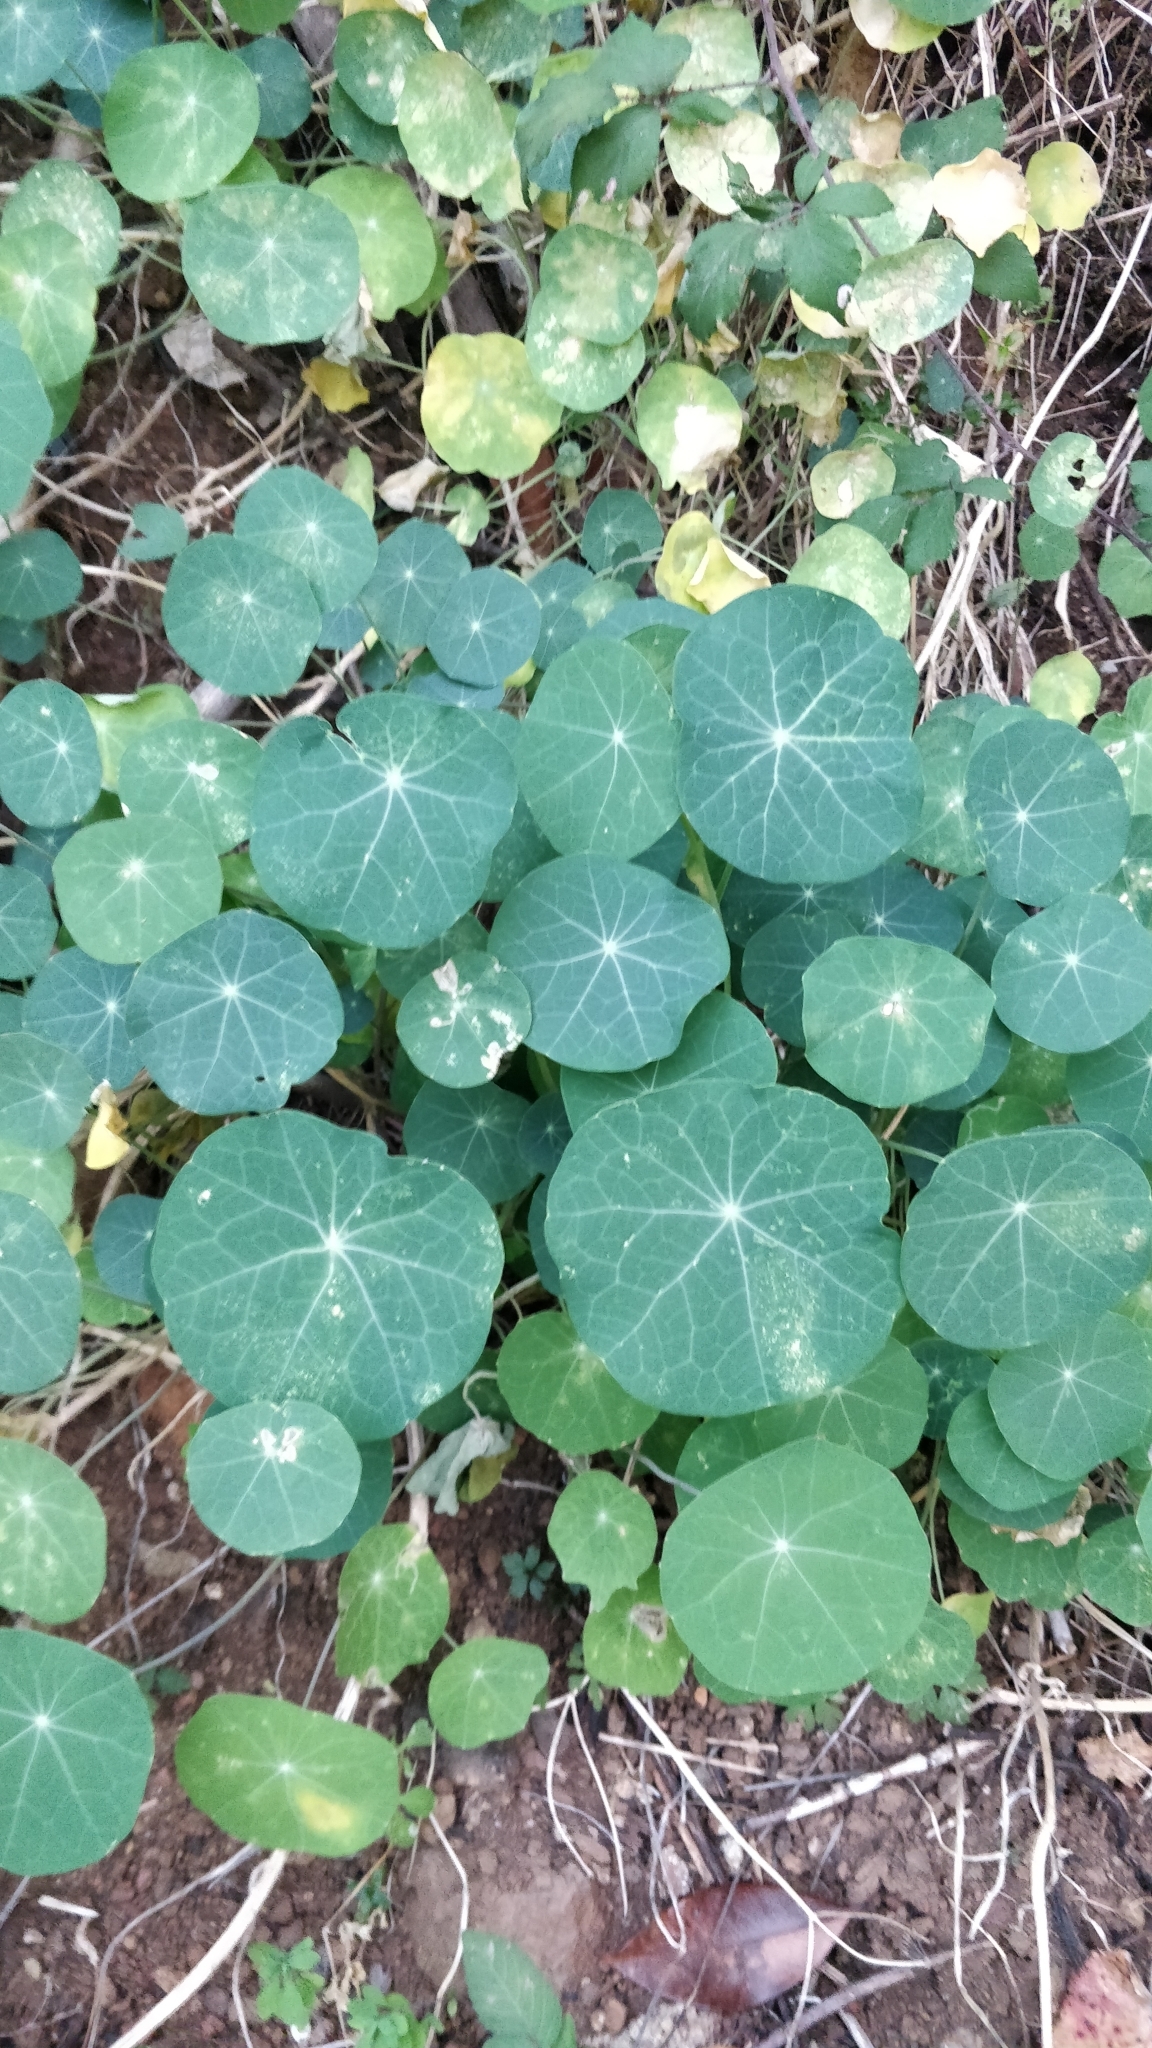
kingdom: Plantae
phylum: Tracheophyta
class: Magnoliopsida
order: Brassicales
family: Tropaeolaceae
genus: Tropaeolum
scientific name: Tropaeolum majus
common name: Nasturtium
